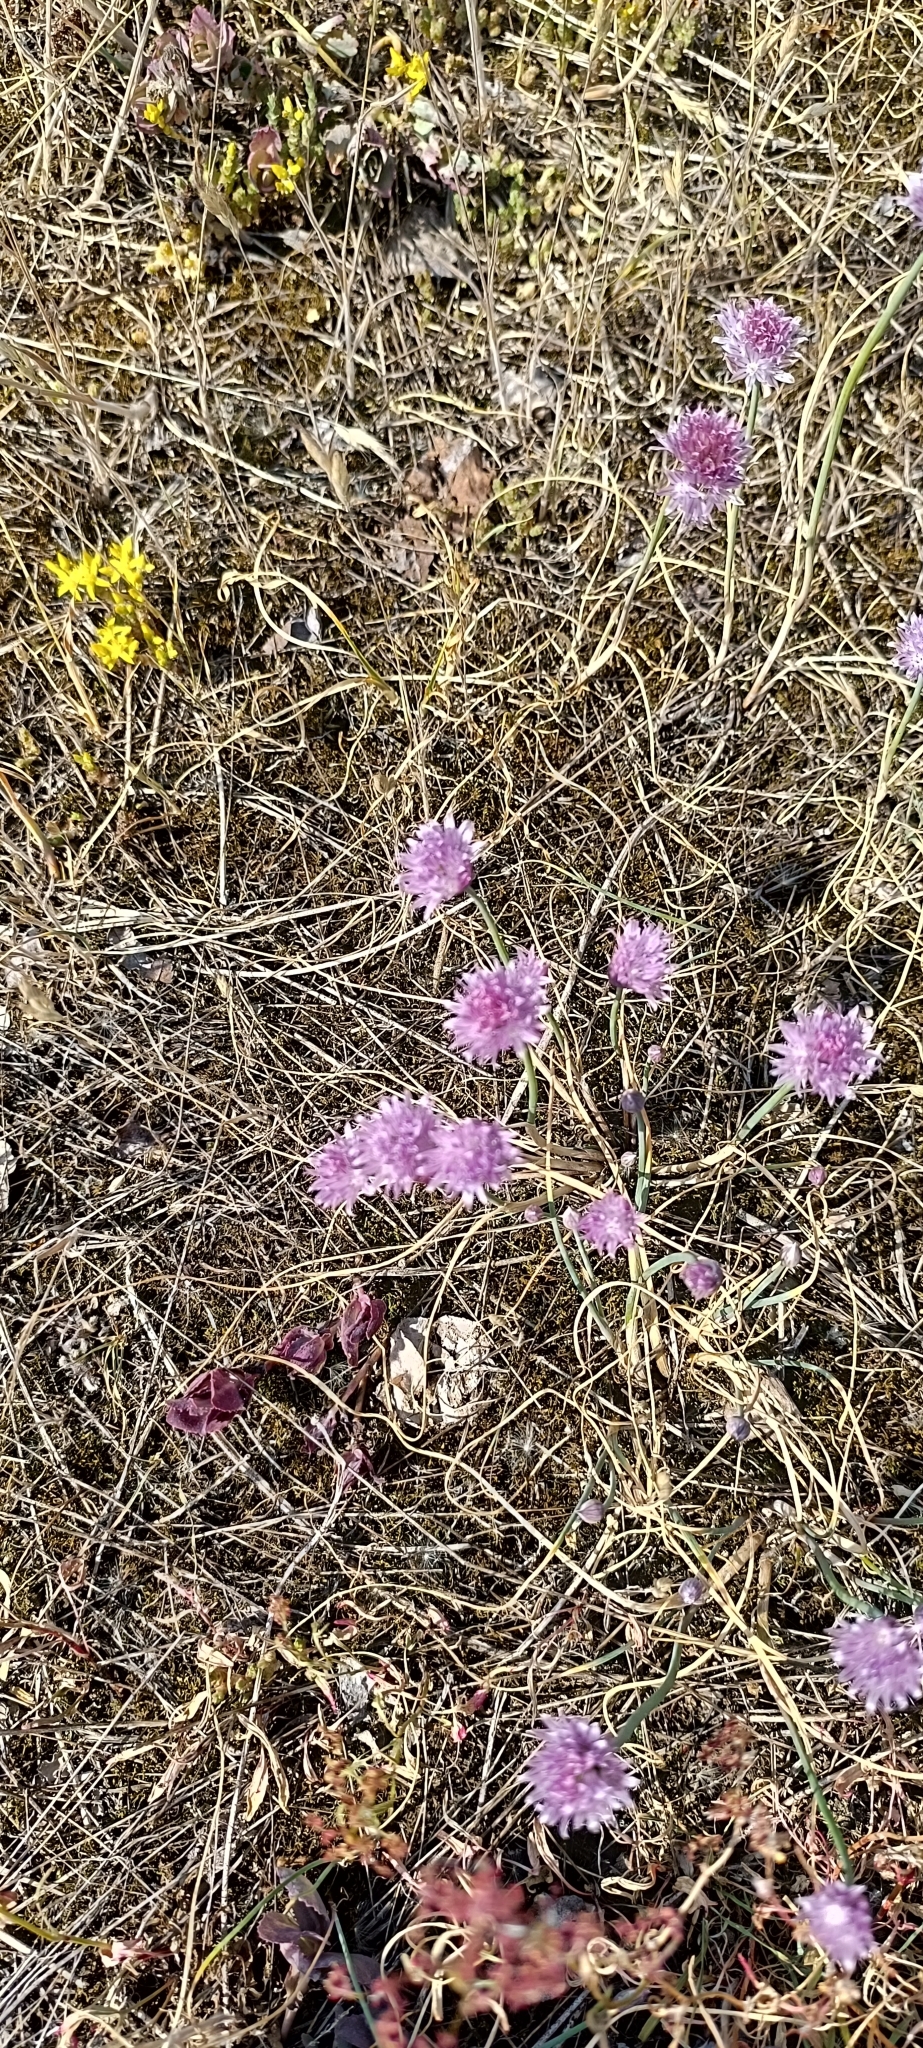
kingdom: Plantae
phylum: Tracheophyta
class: Liliopsida
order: Asparagales
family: Amaryllidaceae
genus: Allium
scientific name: Allium schoenoprasum
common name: Chives
